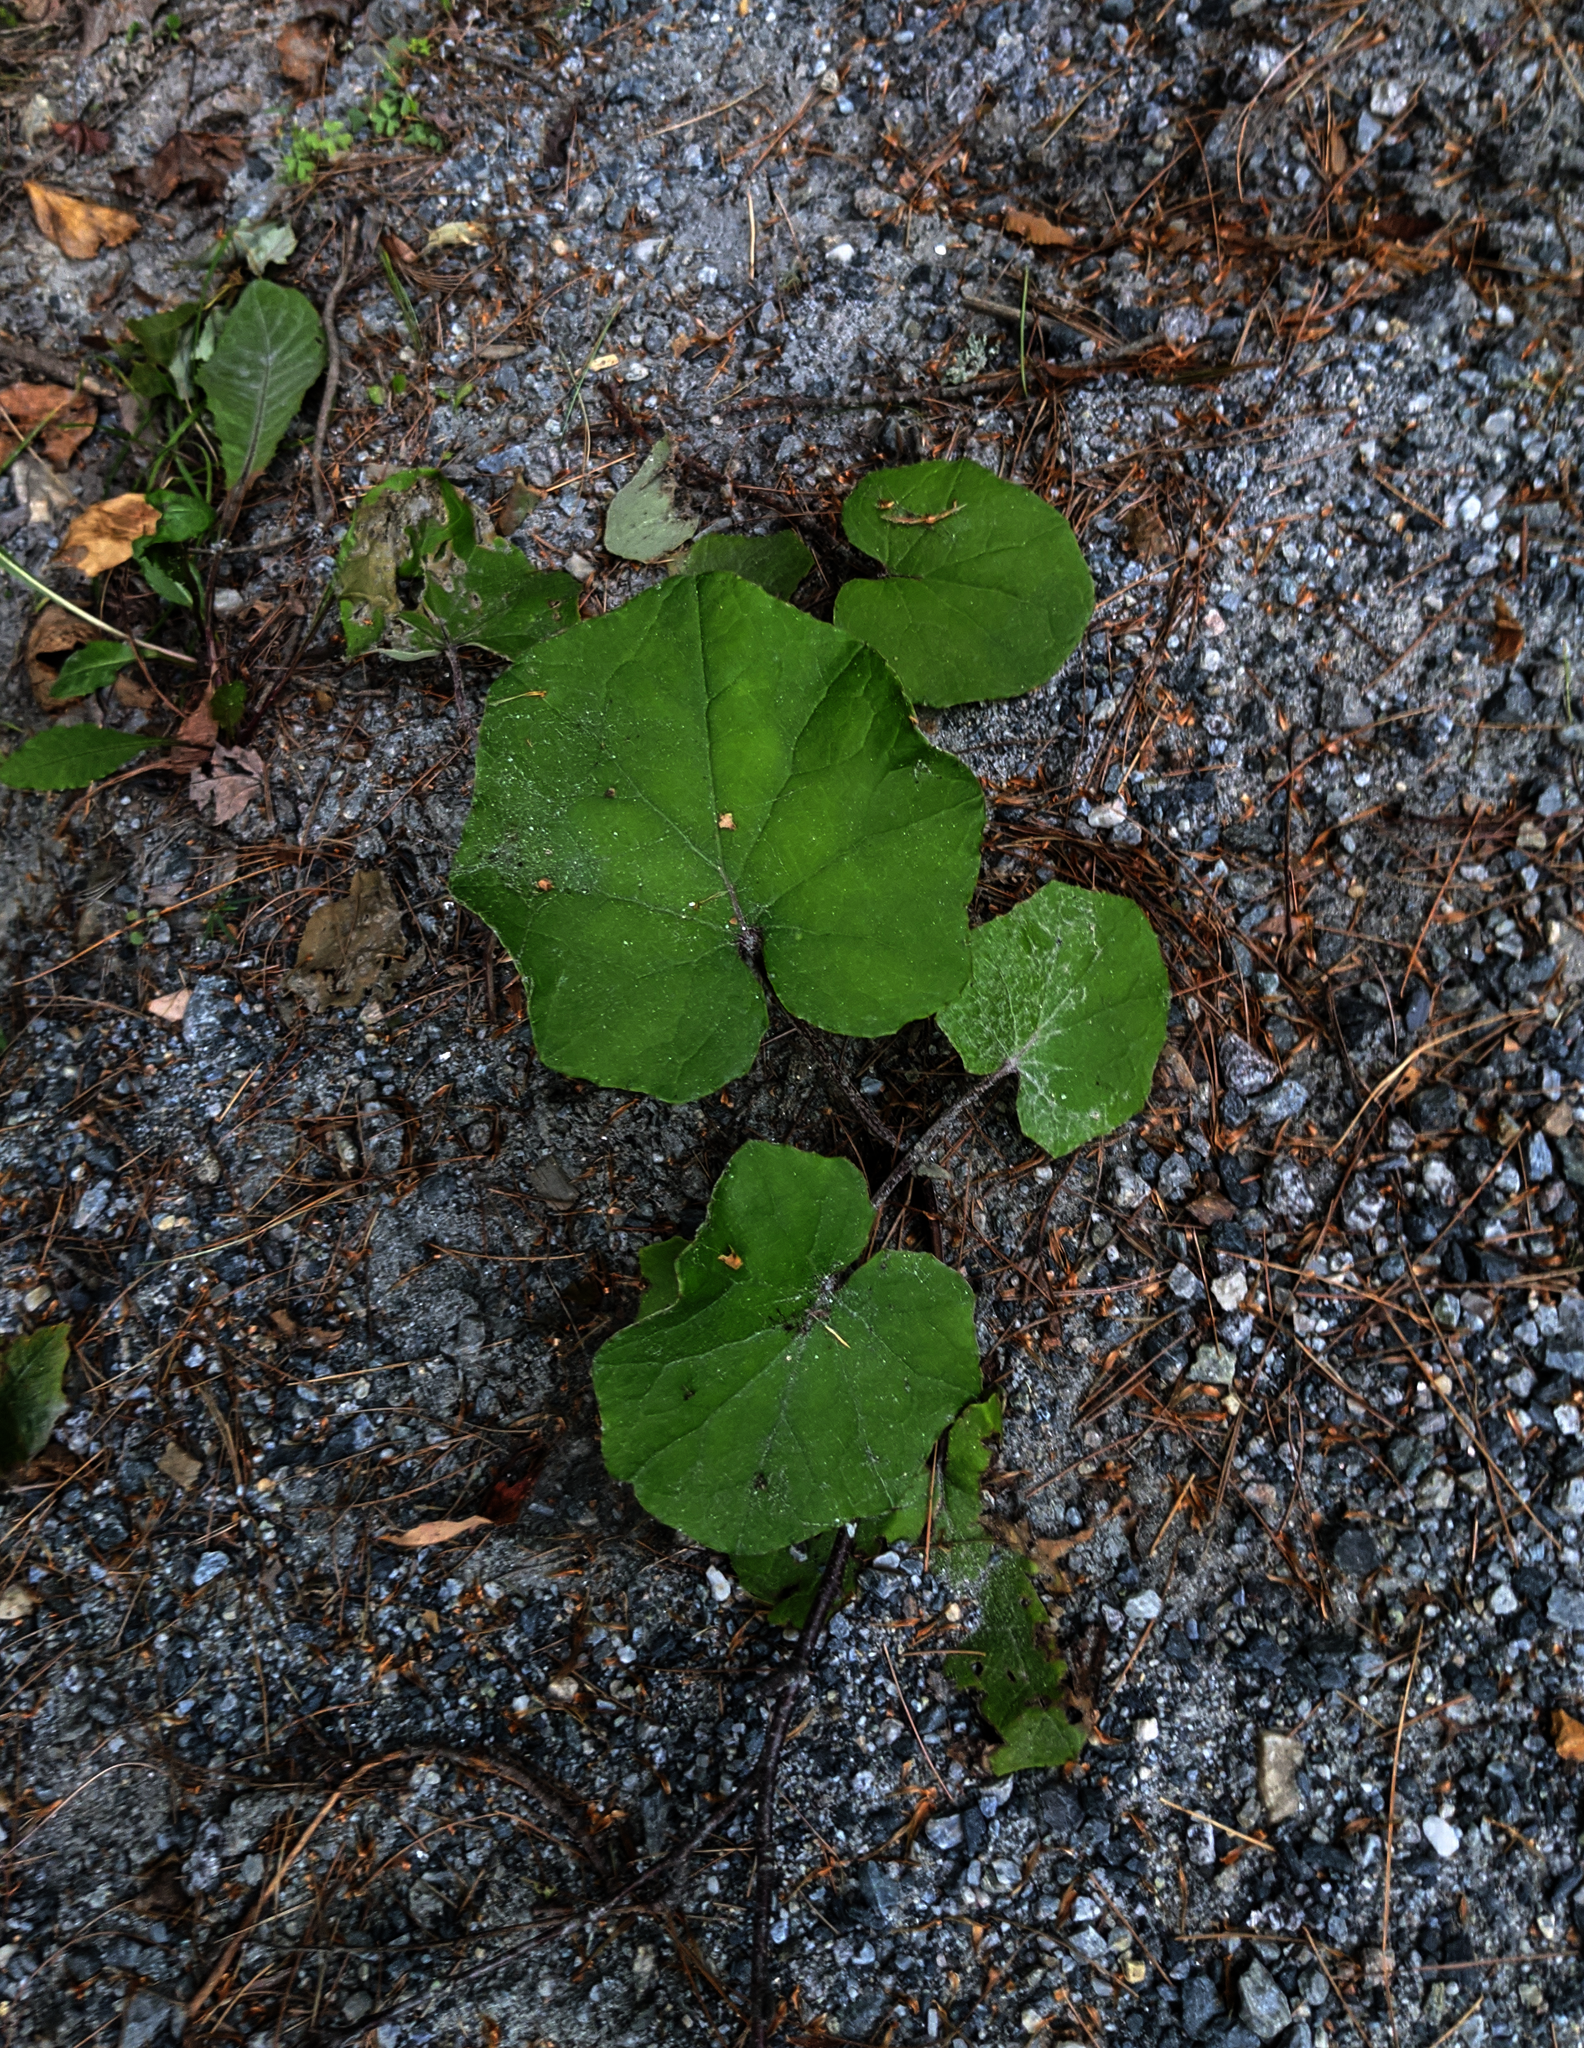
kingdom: Plantae
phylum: Tracheophyta
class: Magnoliopsida
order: Asterales
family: Asteraceae
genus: Tussilago
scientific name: Tussilago farfara
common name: Coltsfoot
